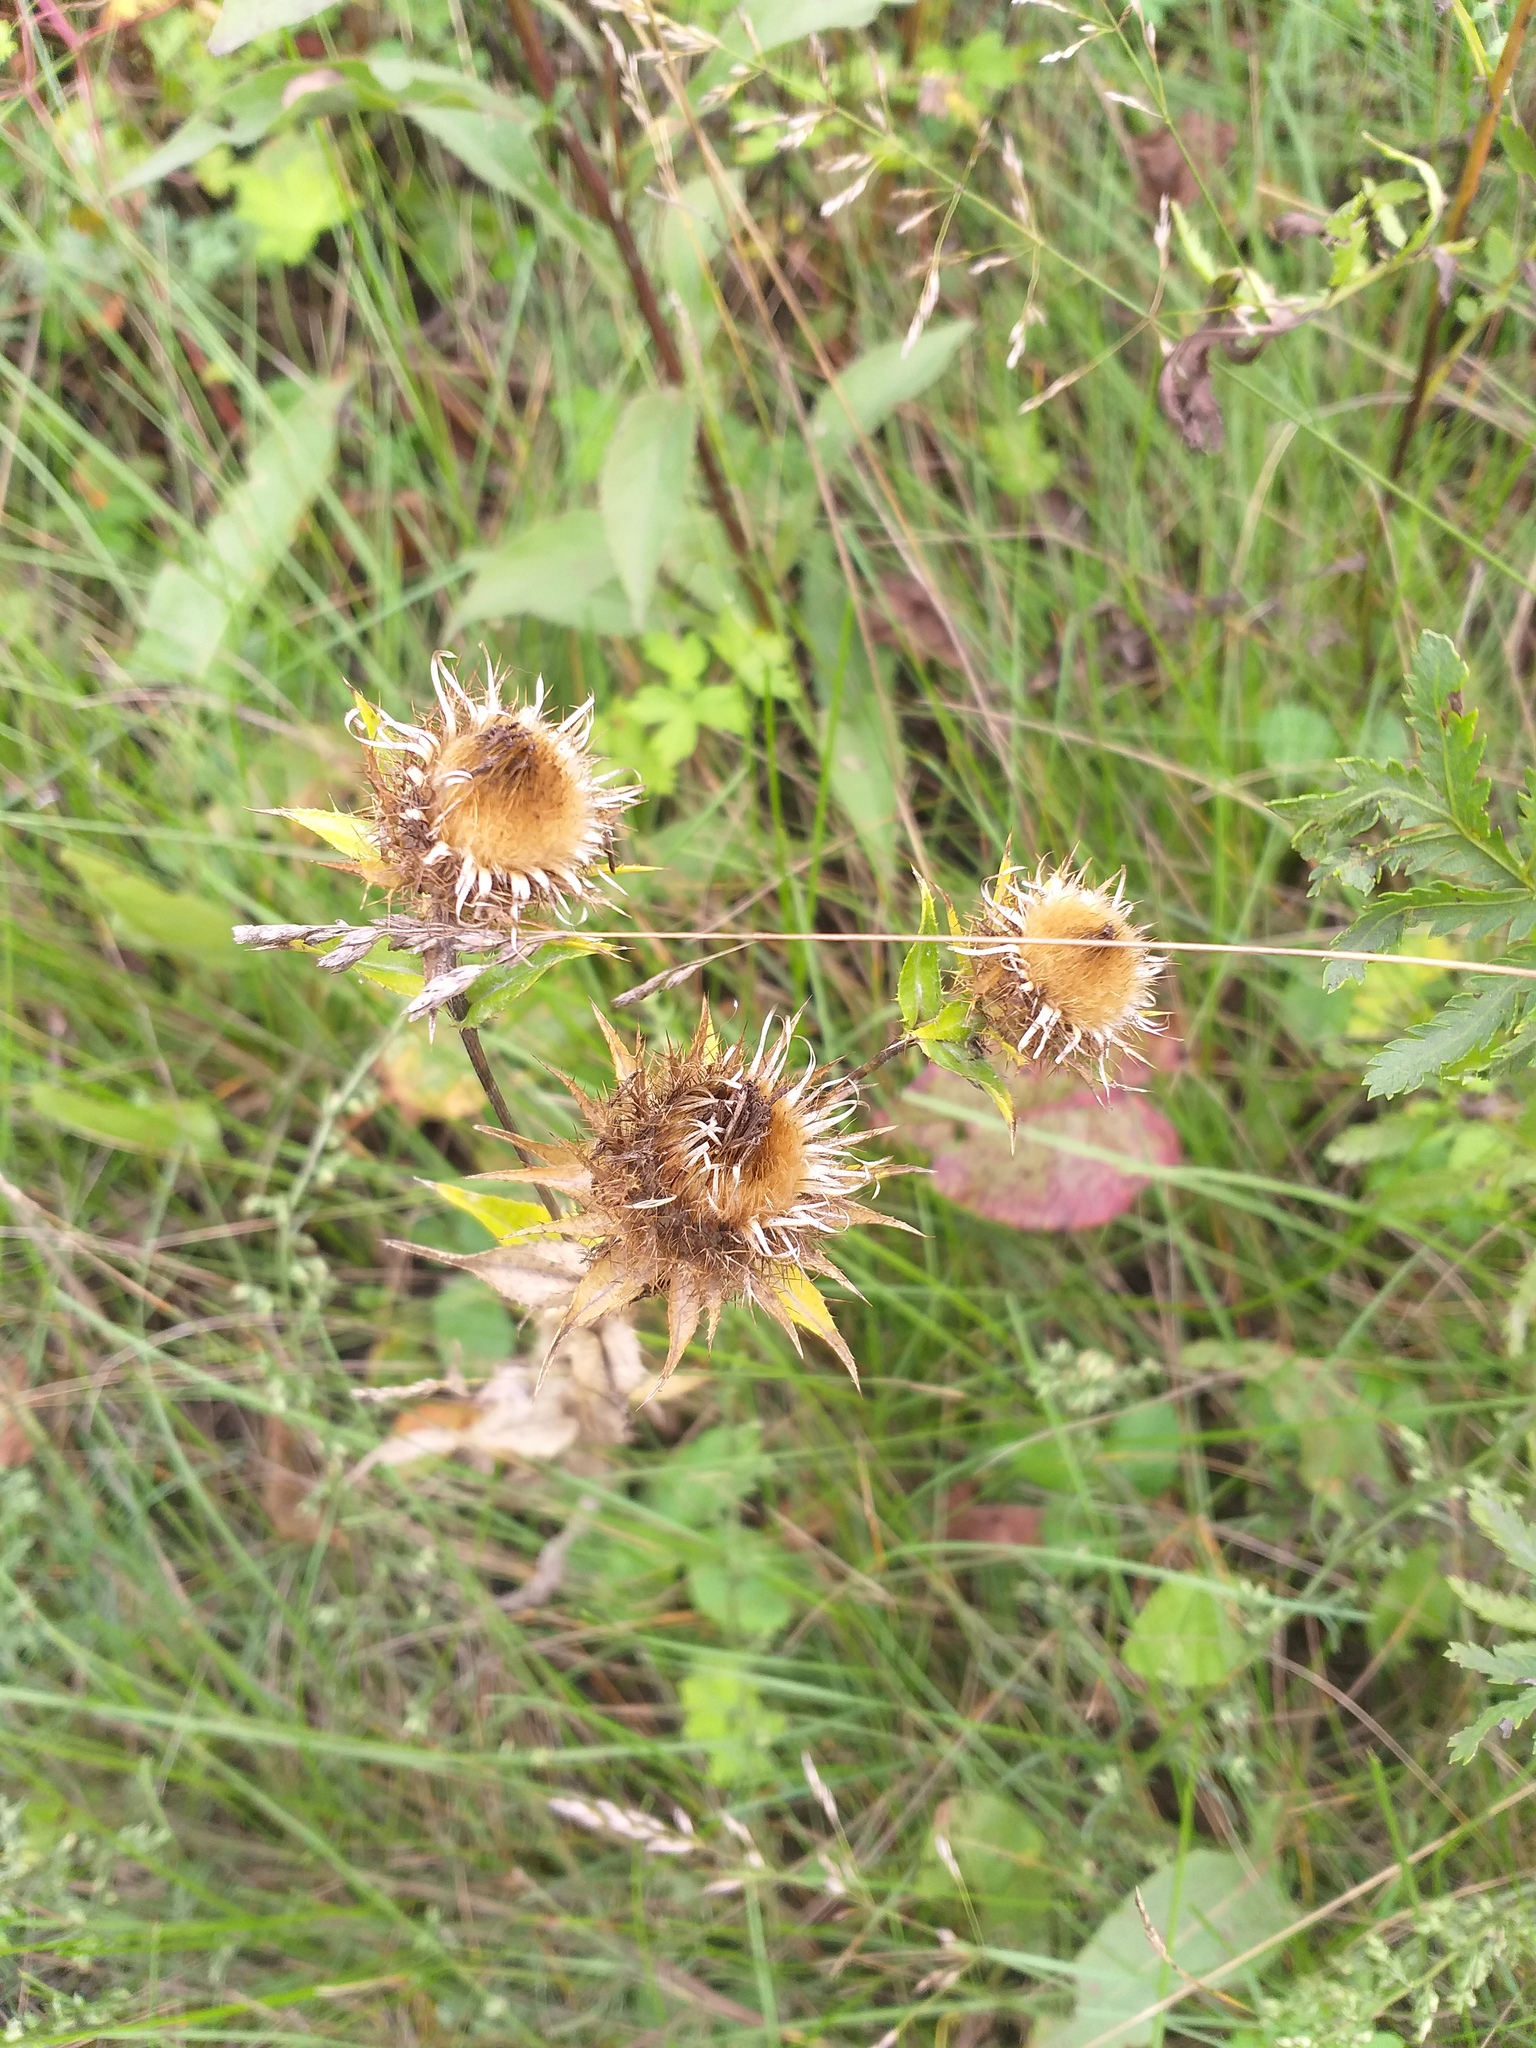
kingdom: Plantae
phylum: Tracheophyta
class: Magnoliopsida
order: Asterales
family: Asteraceae
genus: Carlina
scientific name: Carlina biebersteinii
